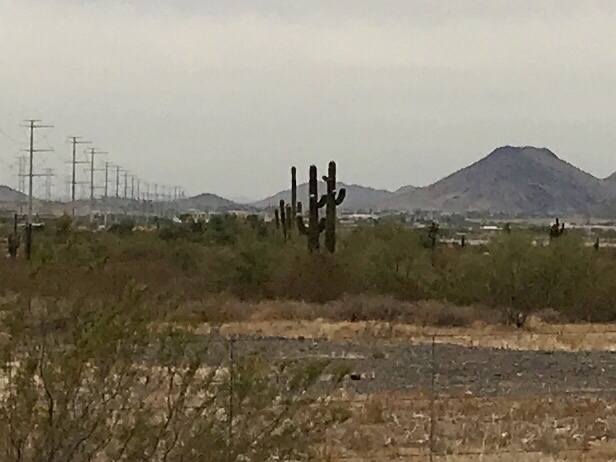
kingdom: Plantae
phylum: Tracheophyta
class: Magnoliopsida
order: Caryophyllales
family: Cactaceae
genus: Carnegiea
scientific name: Carnegiea gigantea
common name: Saguaro
